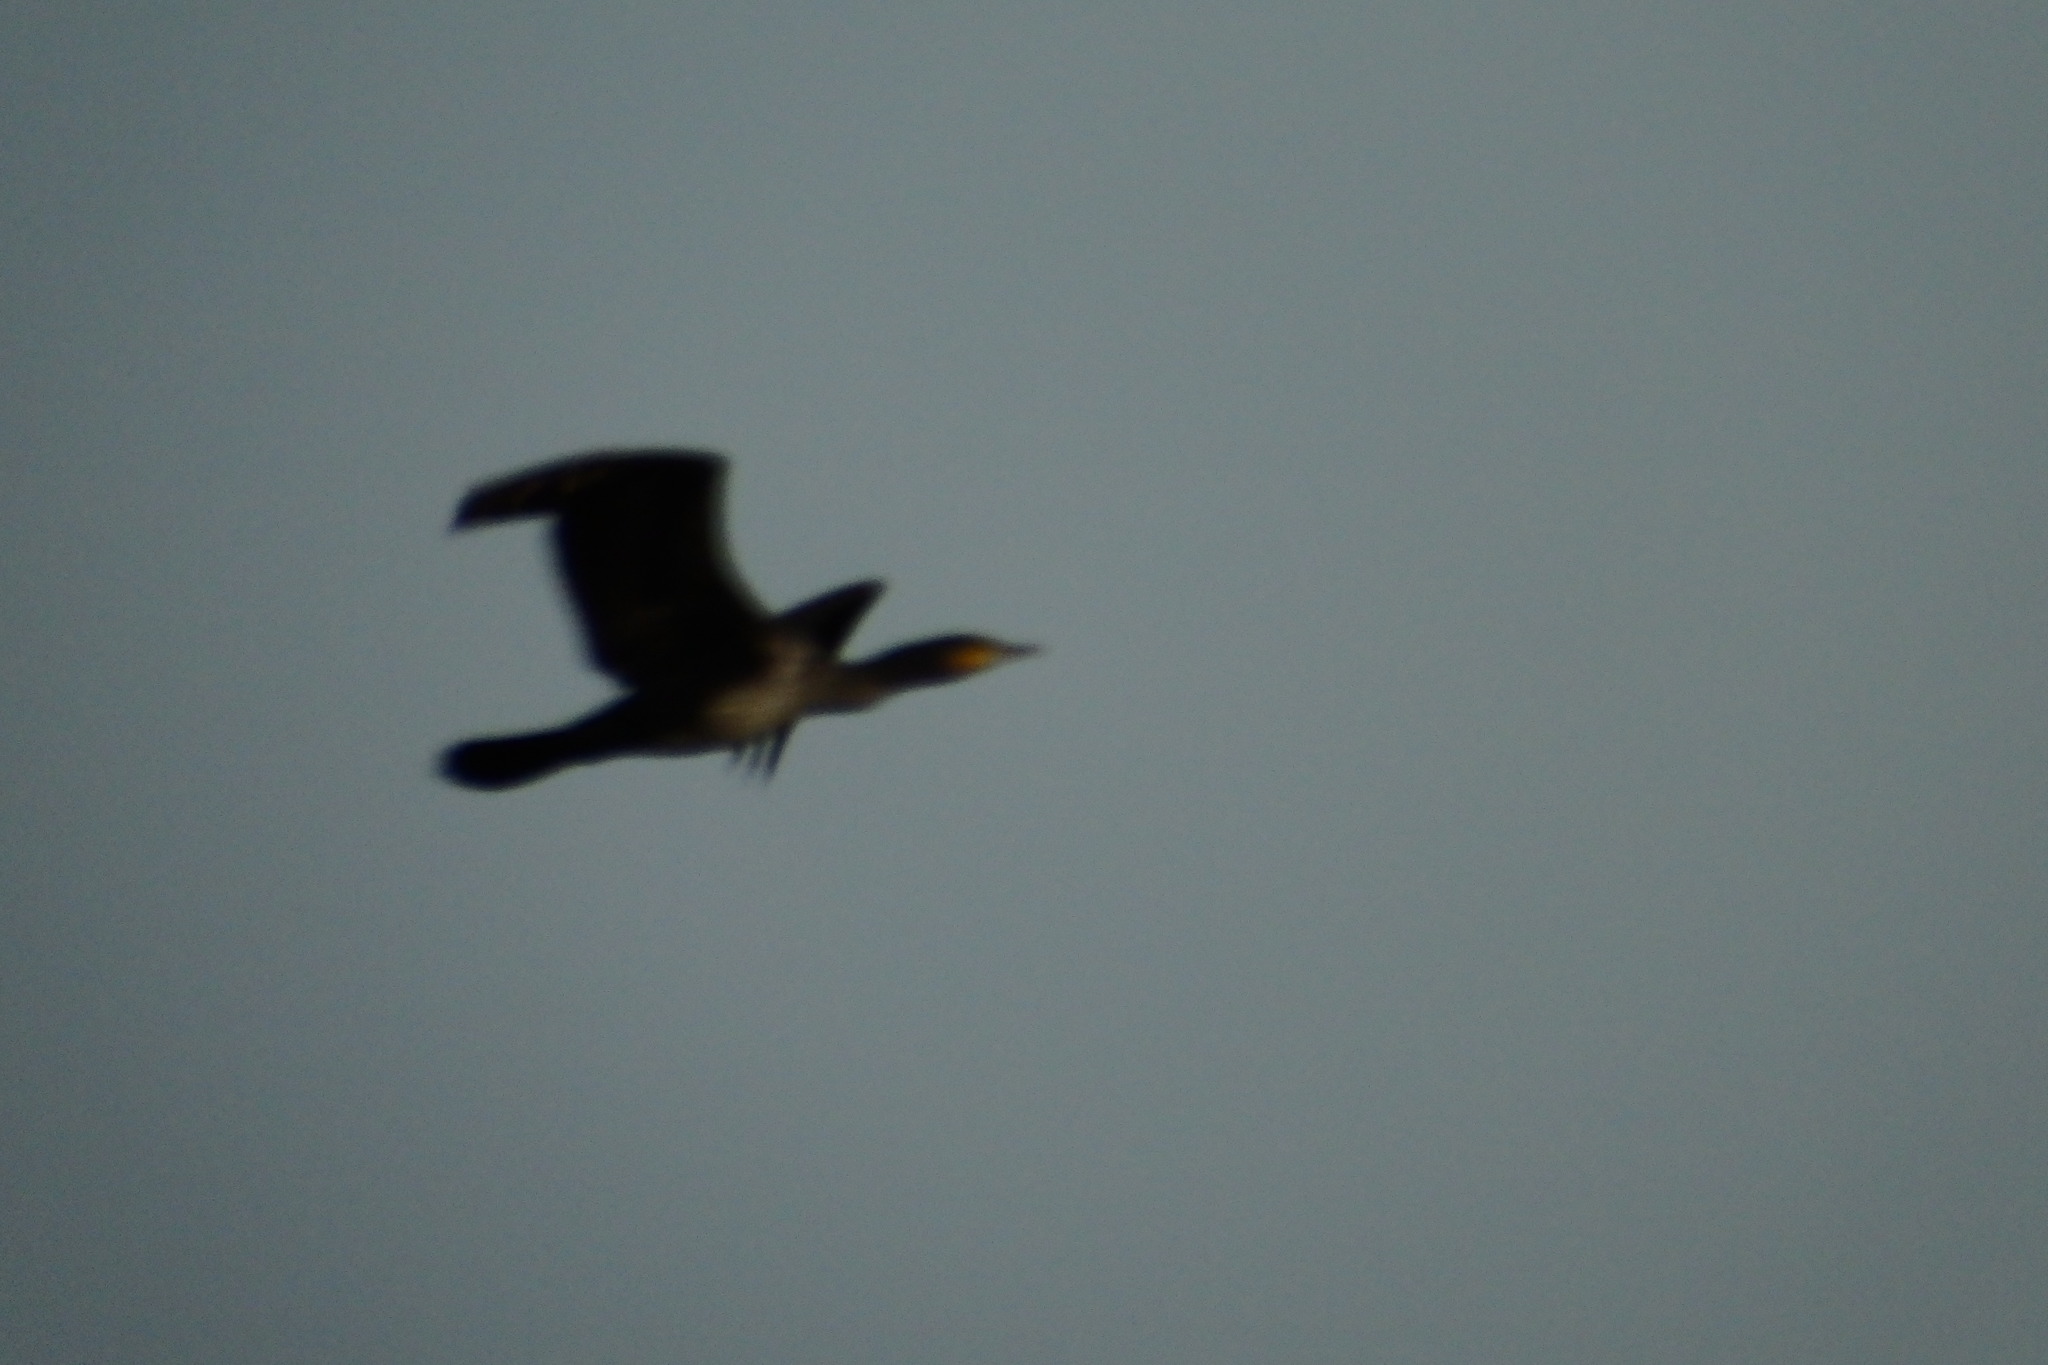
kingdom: Animalia
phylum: Chordata
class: Aves
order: Suliformes
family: Phalacrocoracidae
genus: Phalacrocorax
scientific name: Phalacrocorax carbo
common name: Great cormorant
